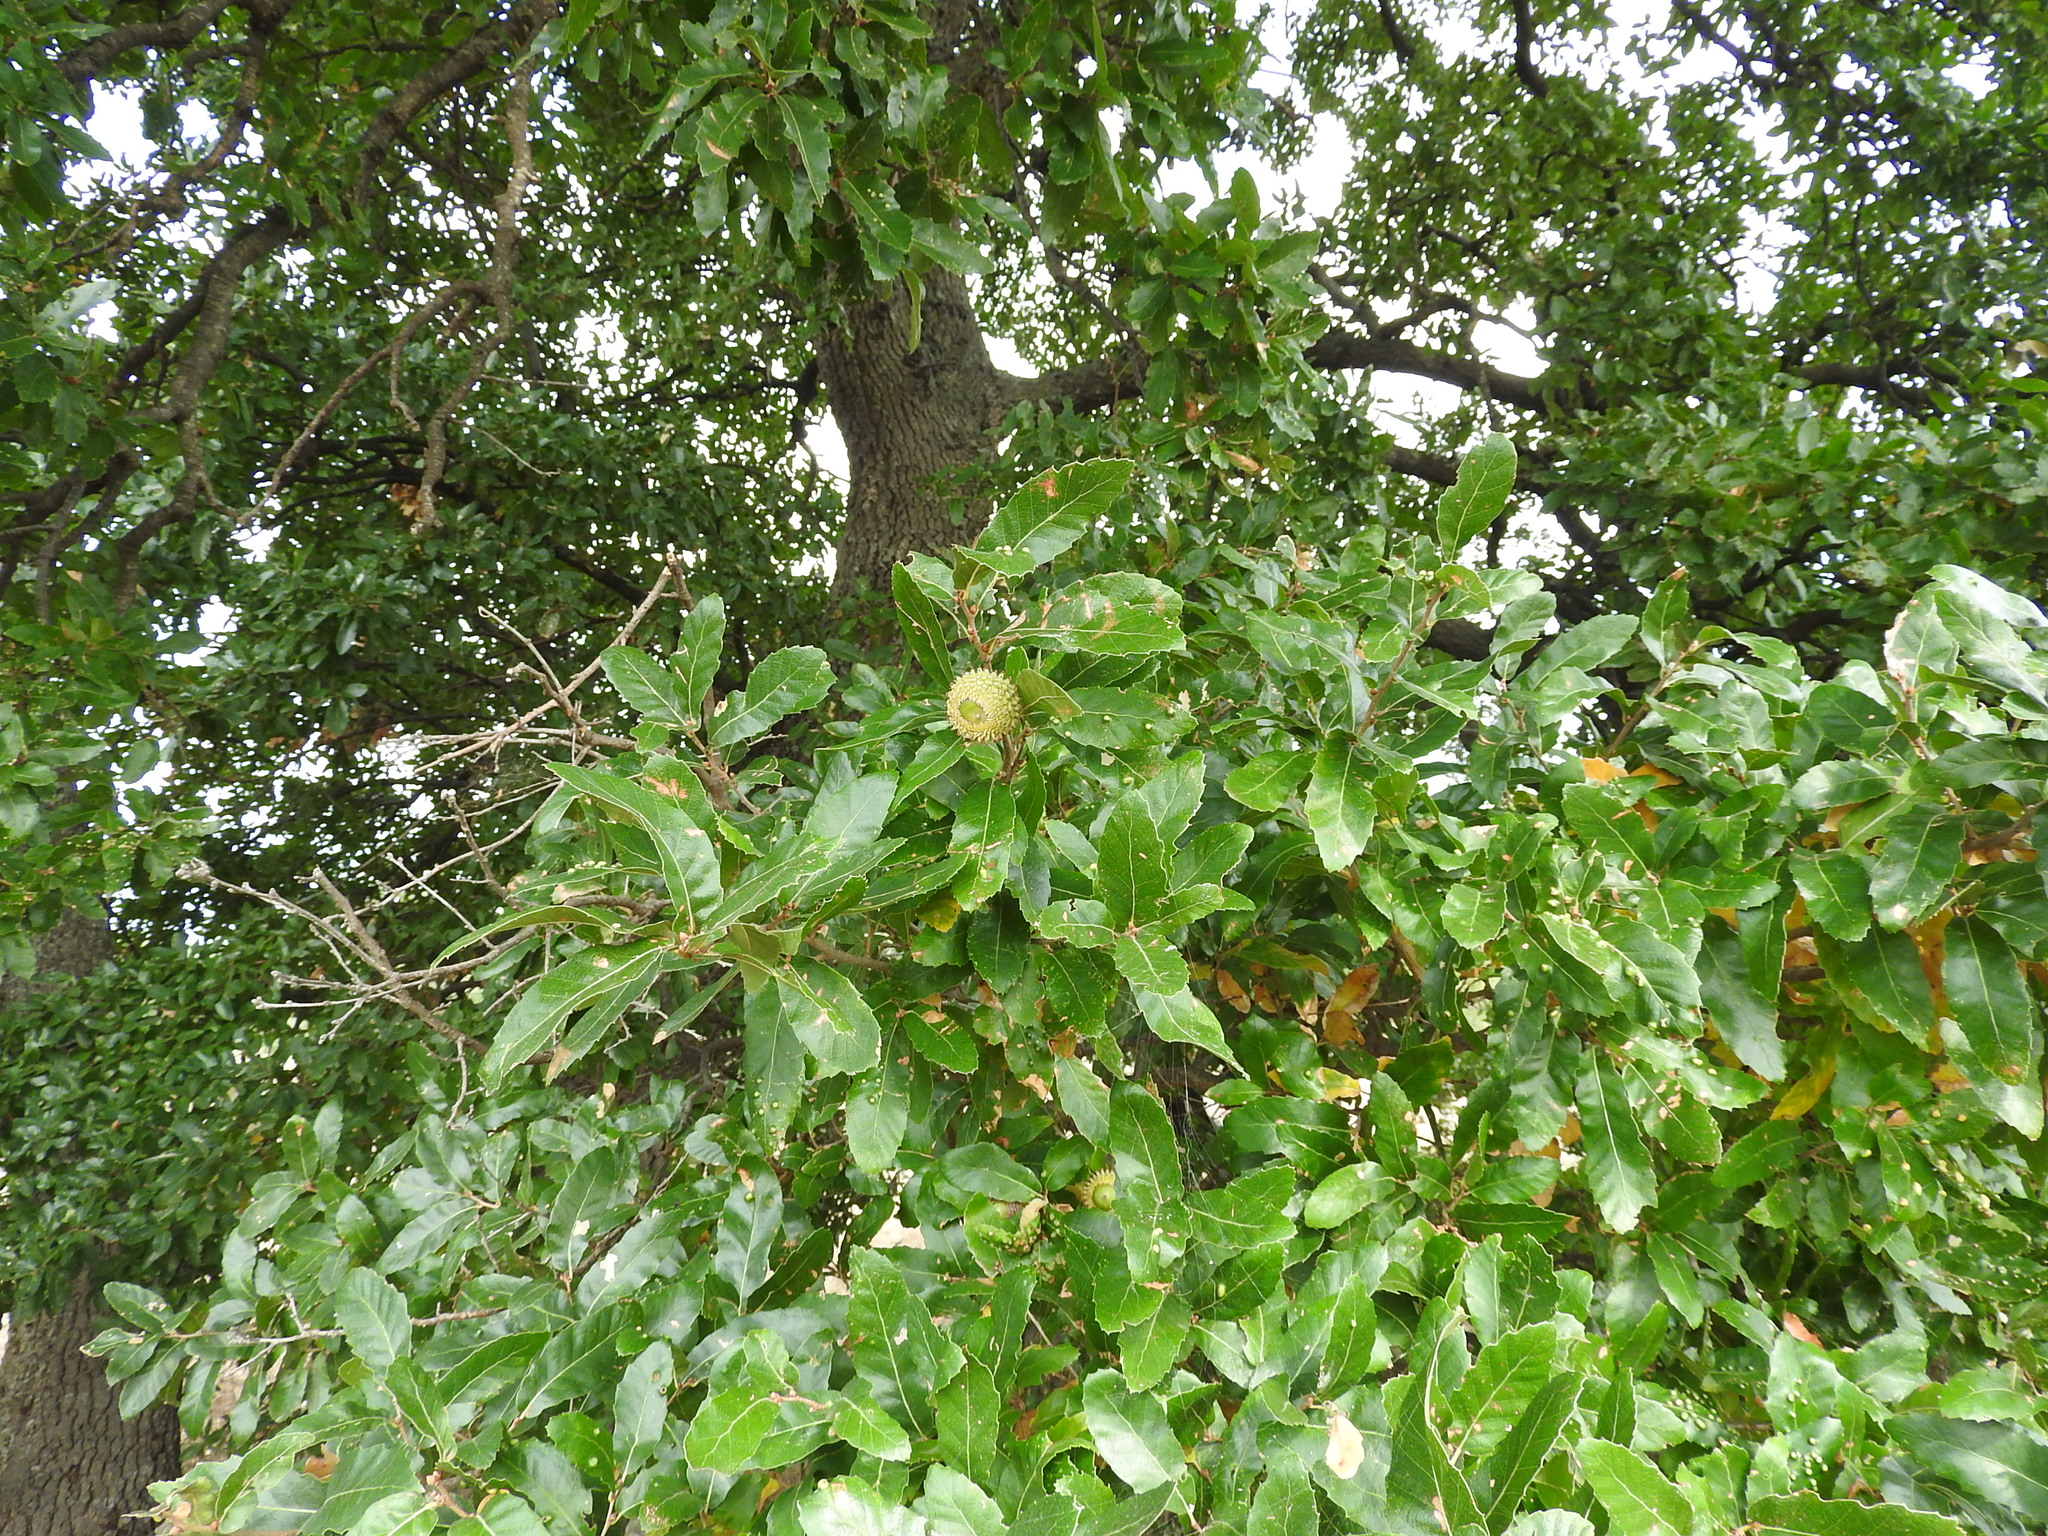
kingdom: Plantae
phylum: Tracheophyta
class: Magnoliopsida
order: Fagales
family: Fagaceae
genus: Quercus
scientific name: Quercus trojana
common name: Macedonian oak
